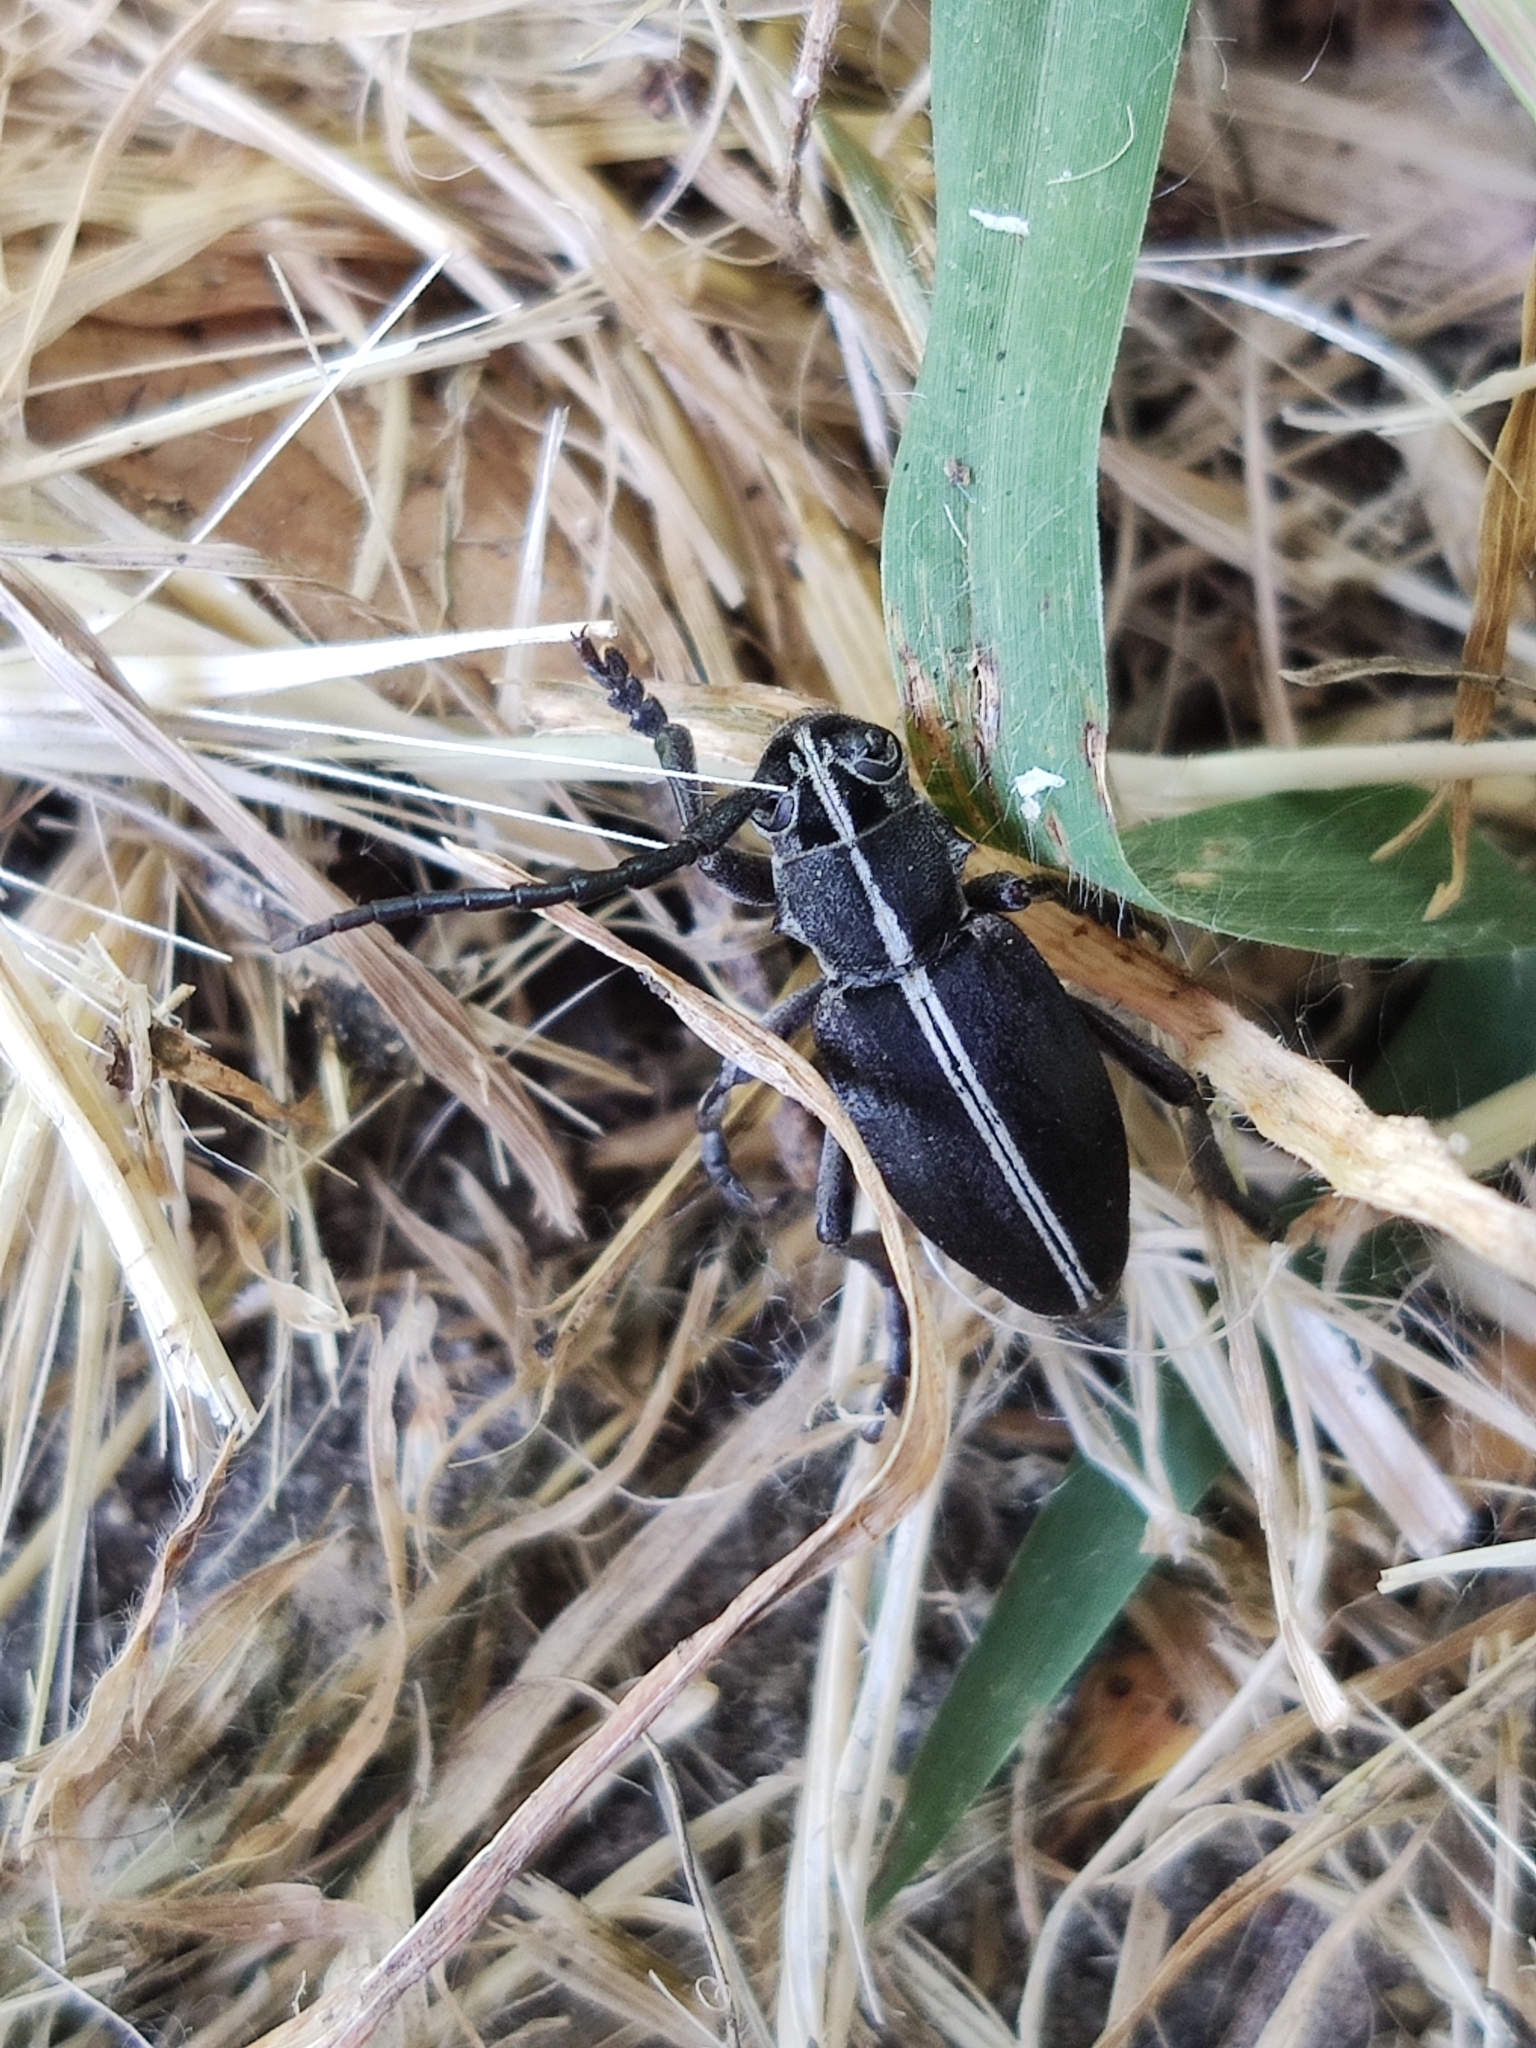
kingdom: Animalia
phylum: Arthropoda
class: Insecta
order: Coleoptera
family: Cerambycidae
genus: Dorcadion
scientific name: Dorcadion arenarium
